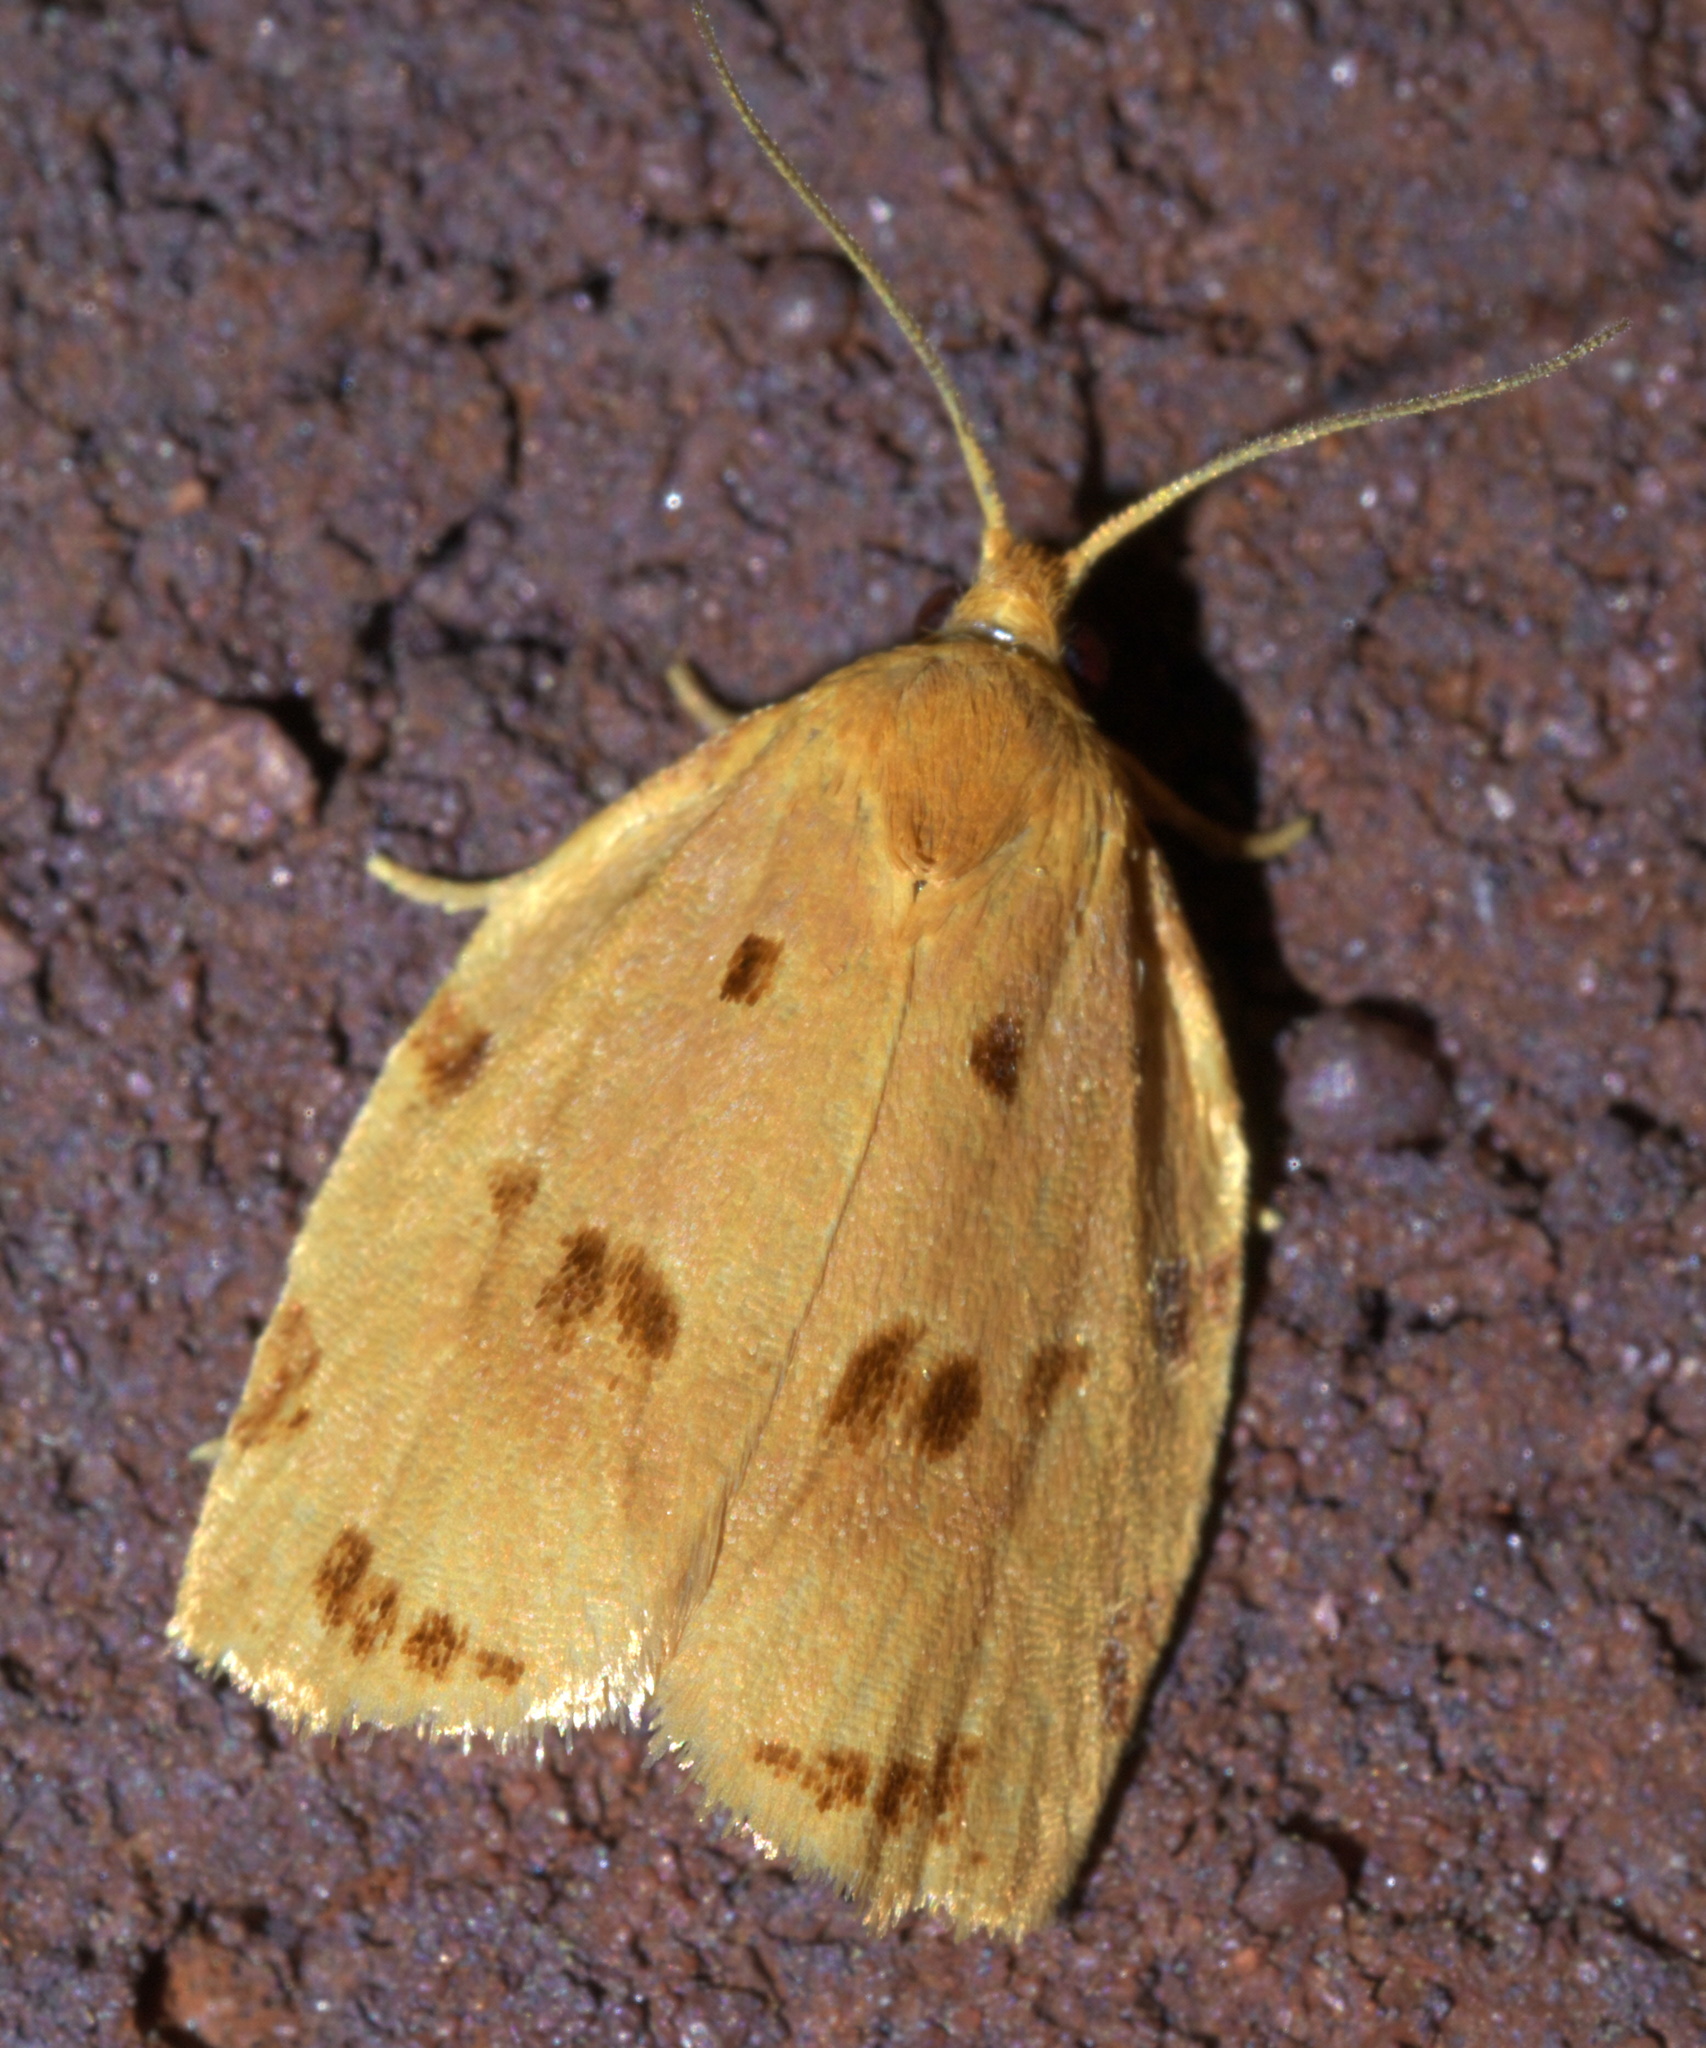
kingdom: Animalia
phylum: Arthropoda
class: Insecta
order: Lepidoptera
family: Tortricidae
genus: Archips
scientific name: Archips rileyana
